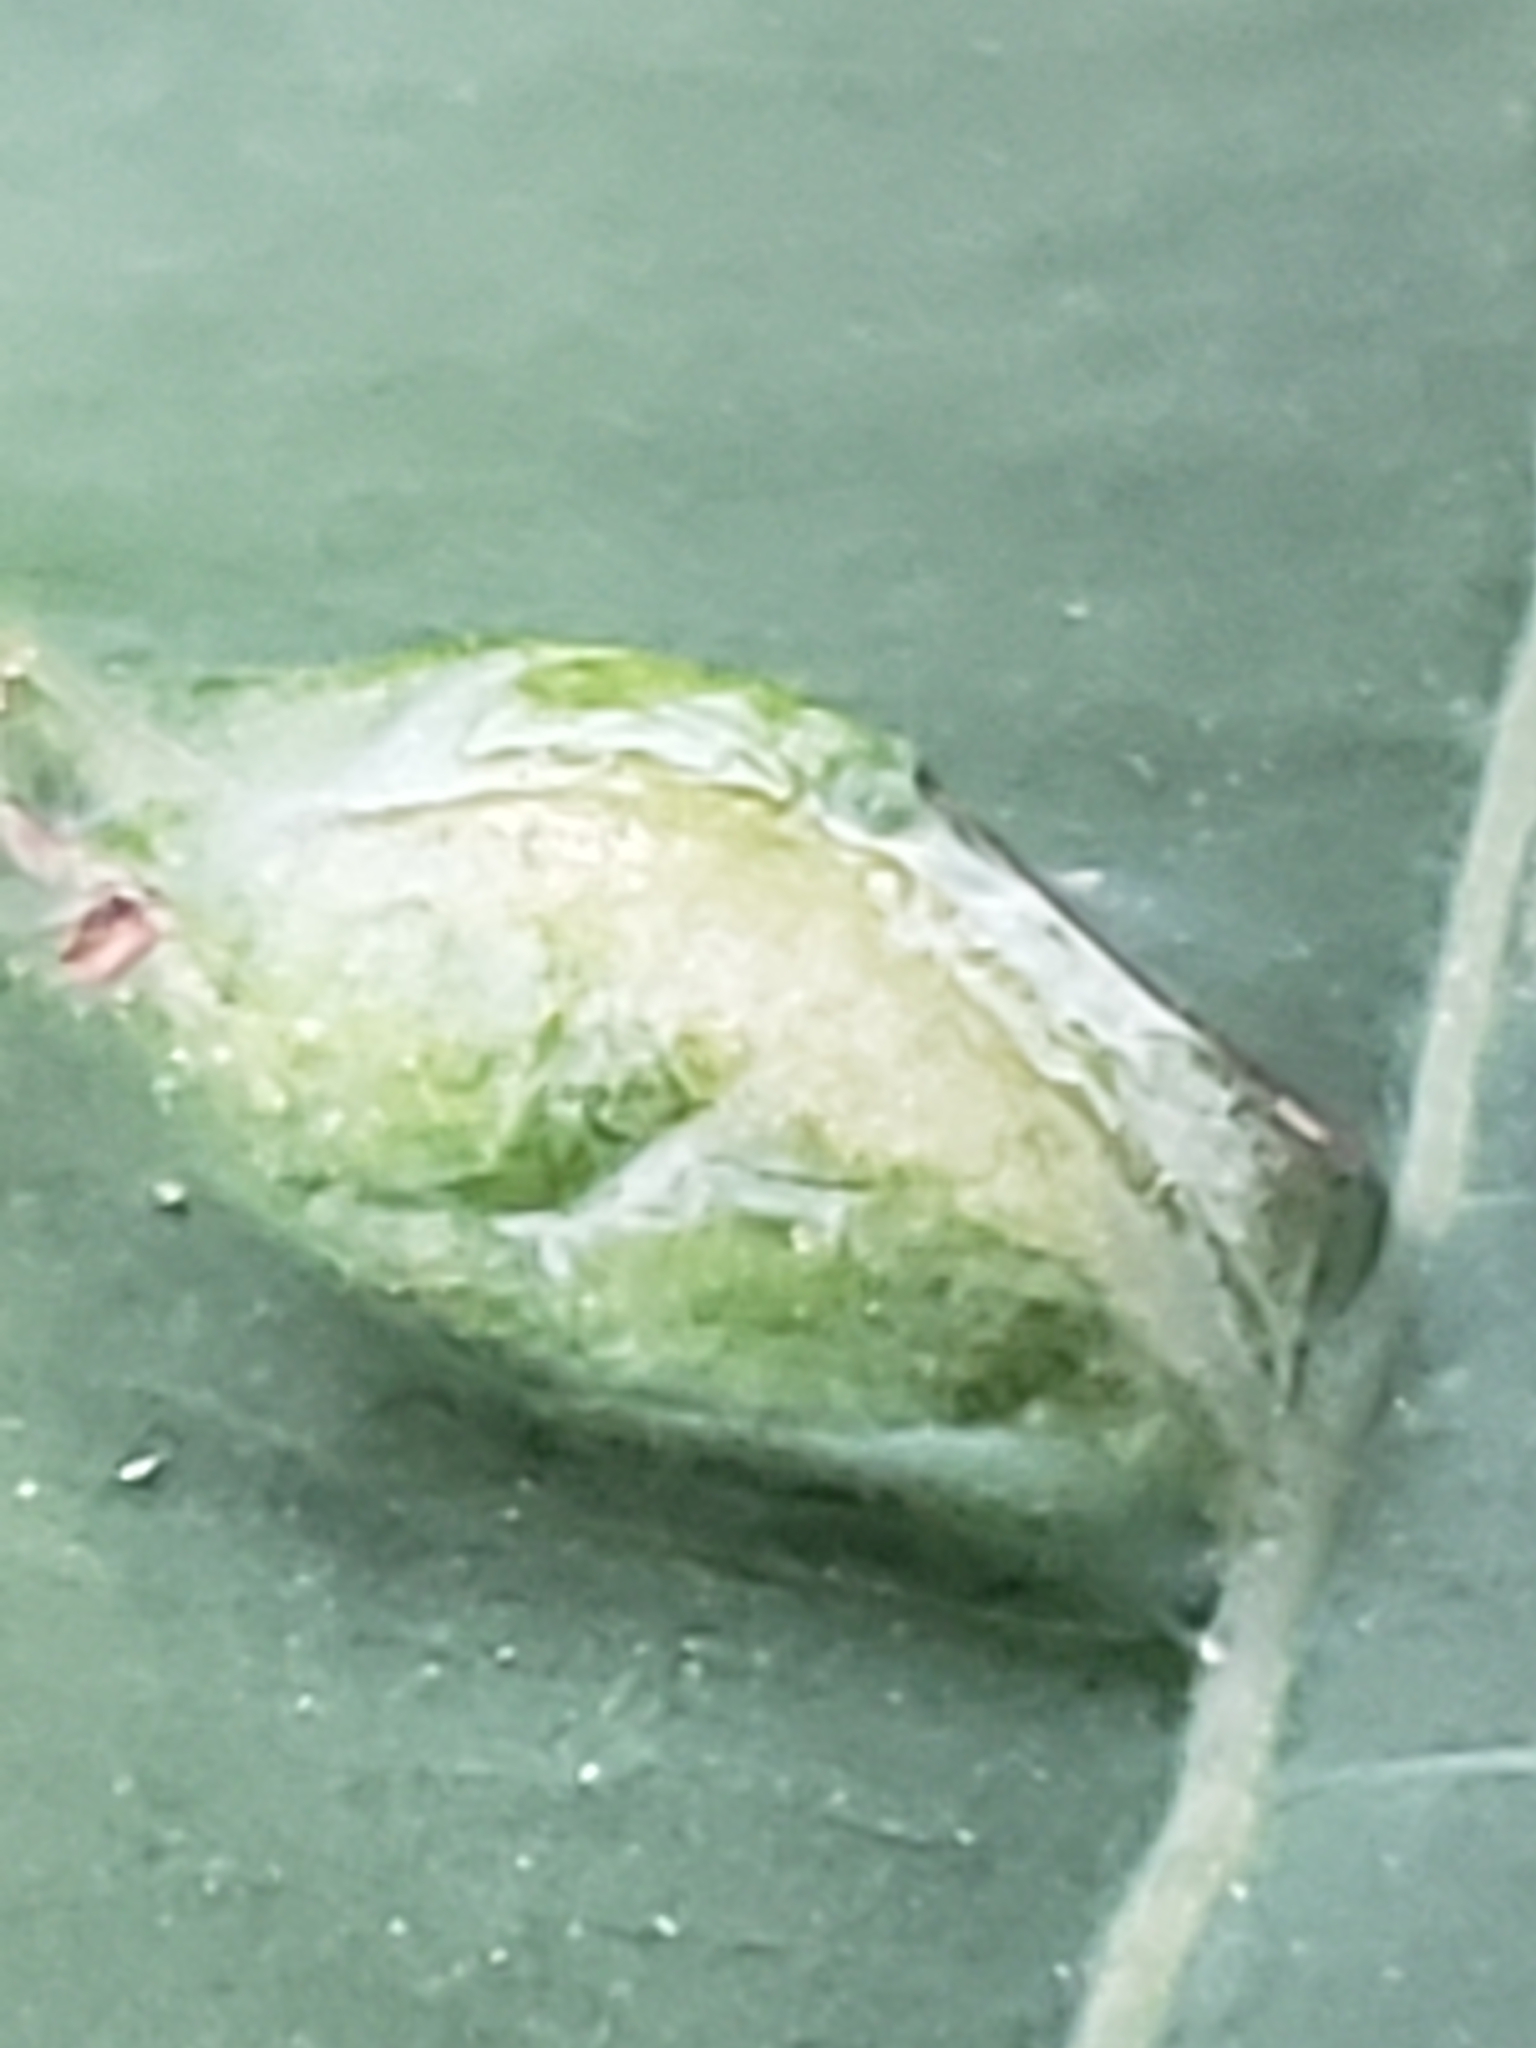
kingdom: Animalia
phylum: Arthropoda
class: Insecta
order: Diptera
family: Cecidomyiidae
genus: Neolasioptera
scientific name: Neolasioptera impatientifolia
